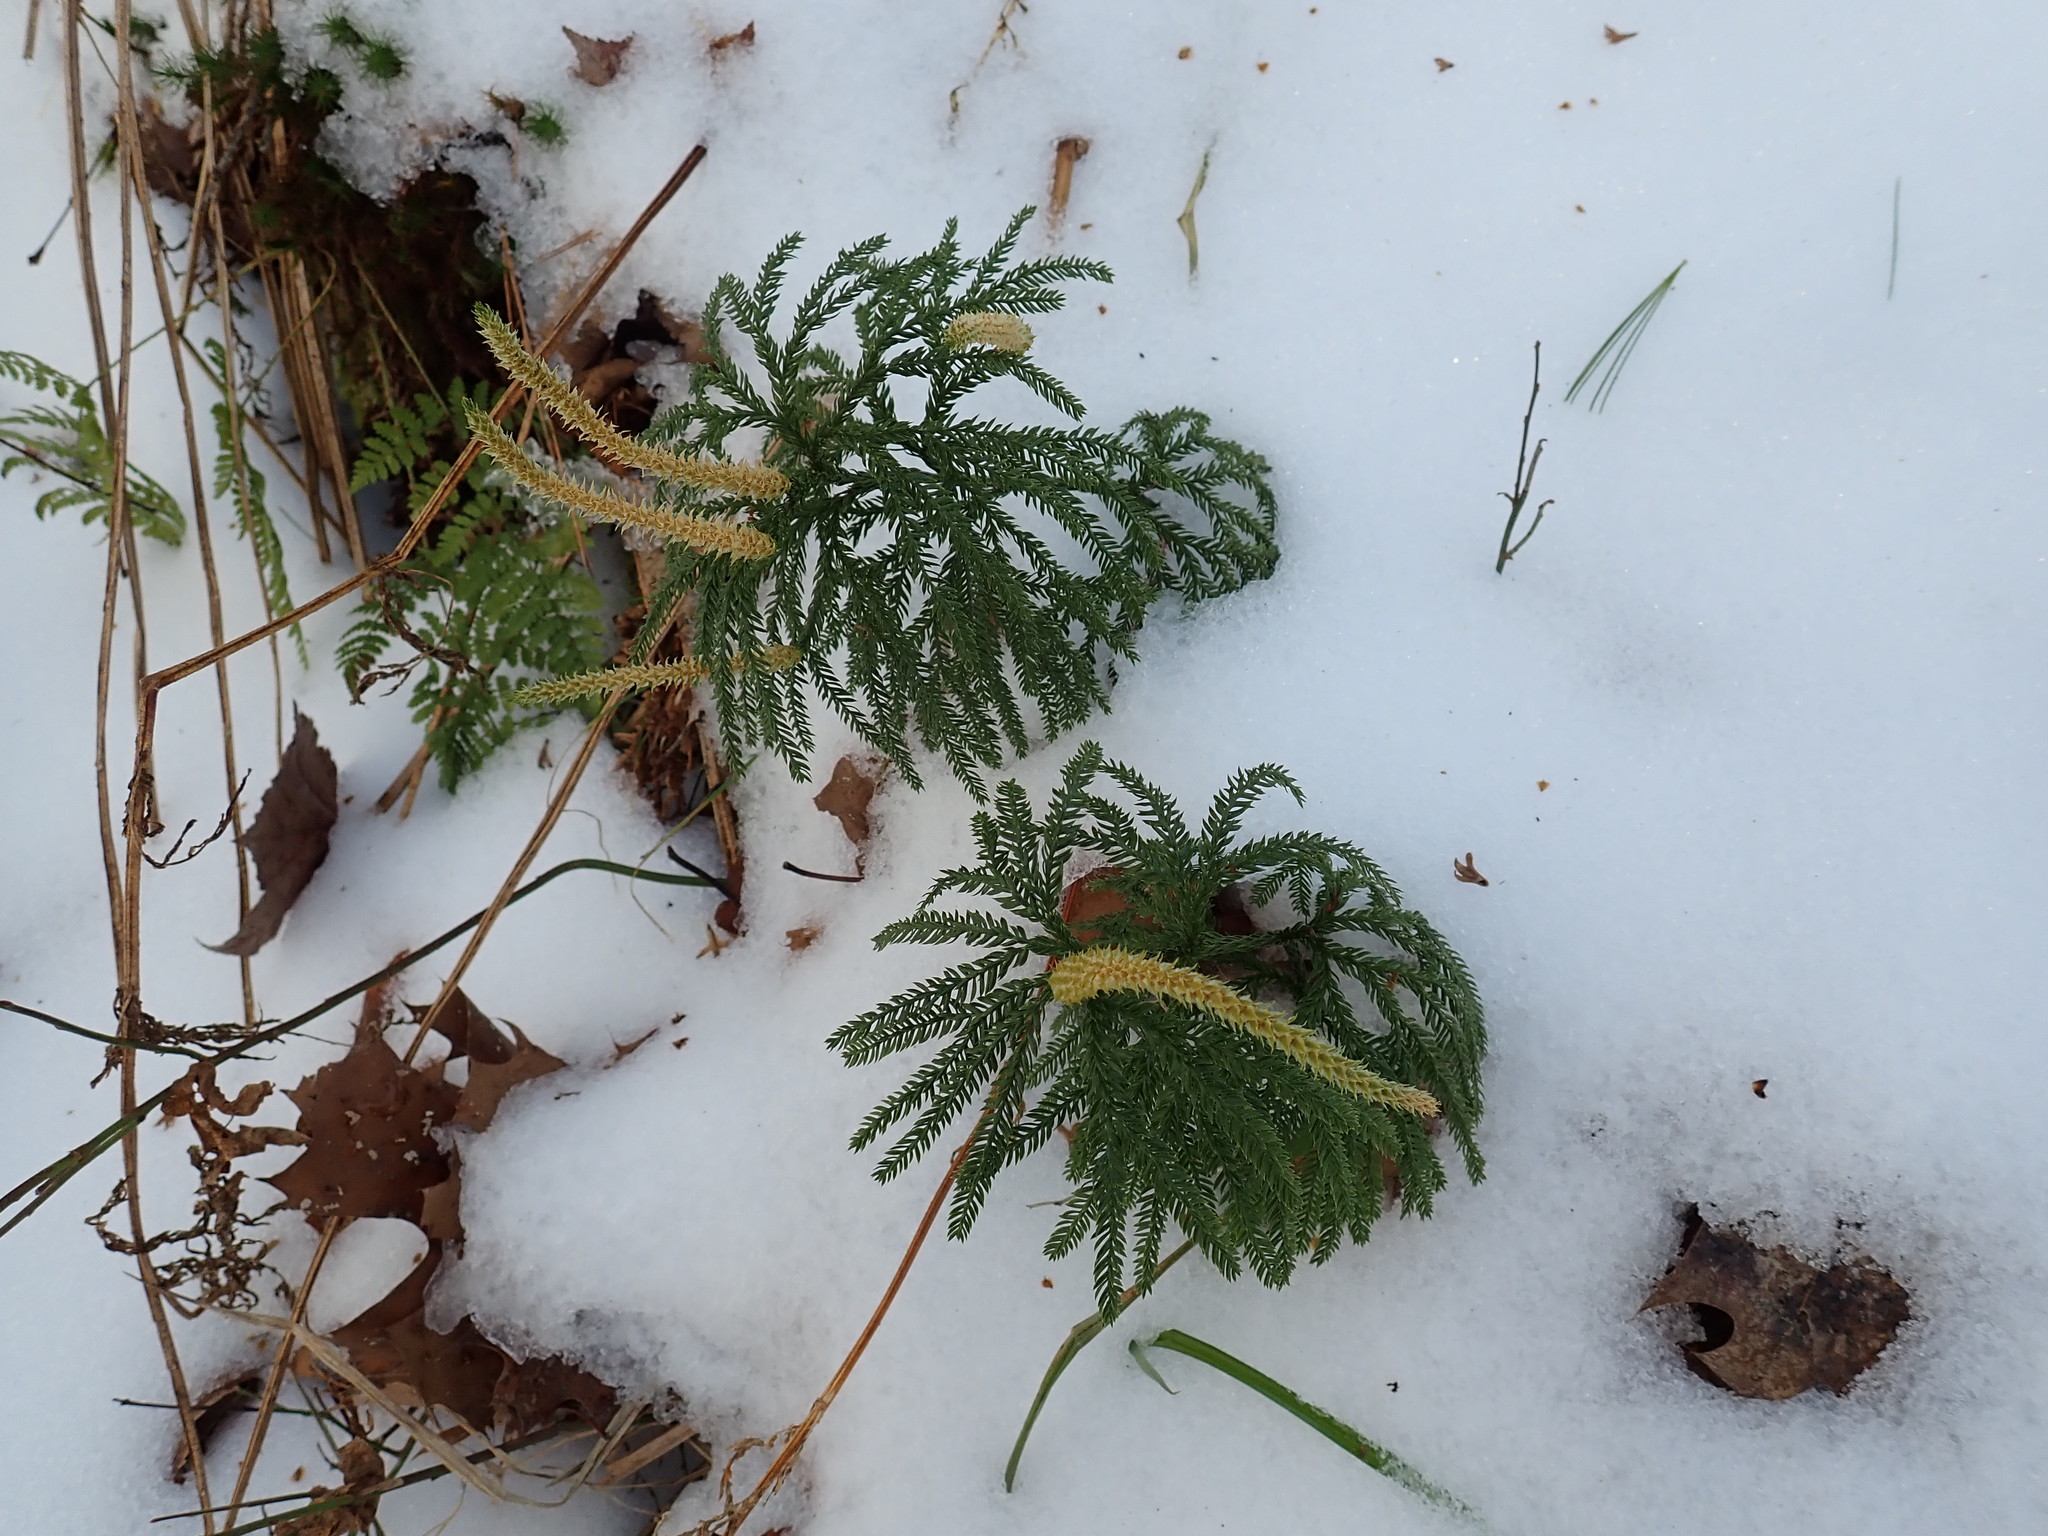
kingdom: Plantae
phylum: Tracheophyta
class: Lycopodiopsida
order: Lycopodiales
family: Lycopodiaceae
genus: Dendrolycopodium
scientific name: Dendrolycopodium obscurum
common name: Common ground-pine
